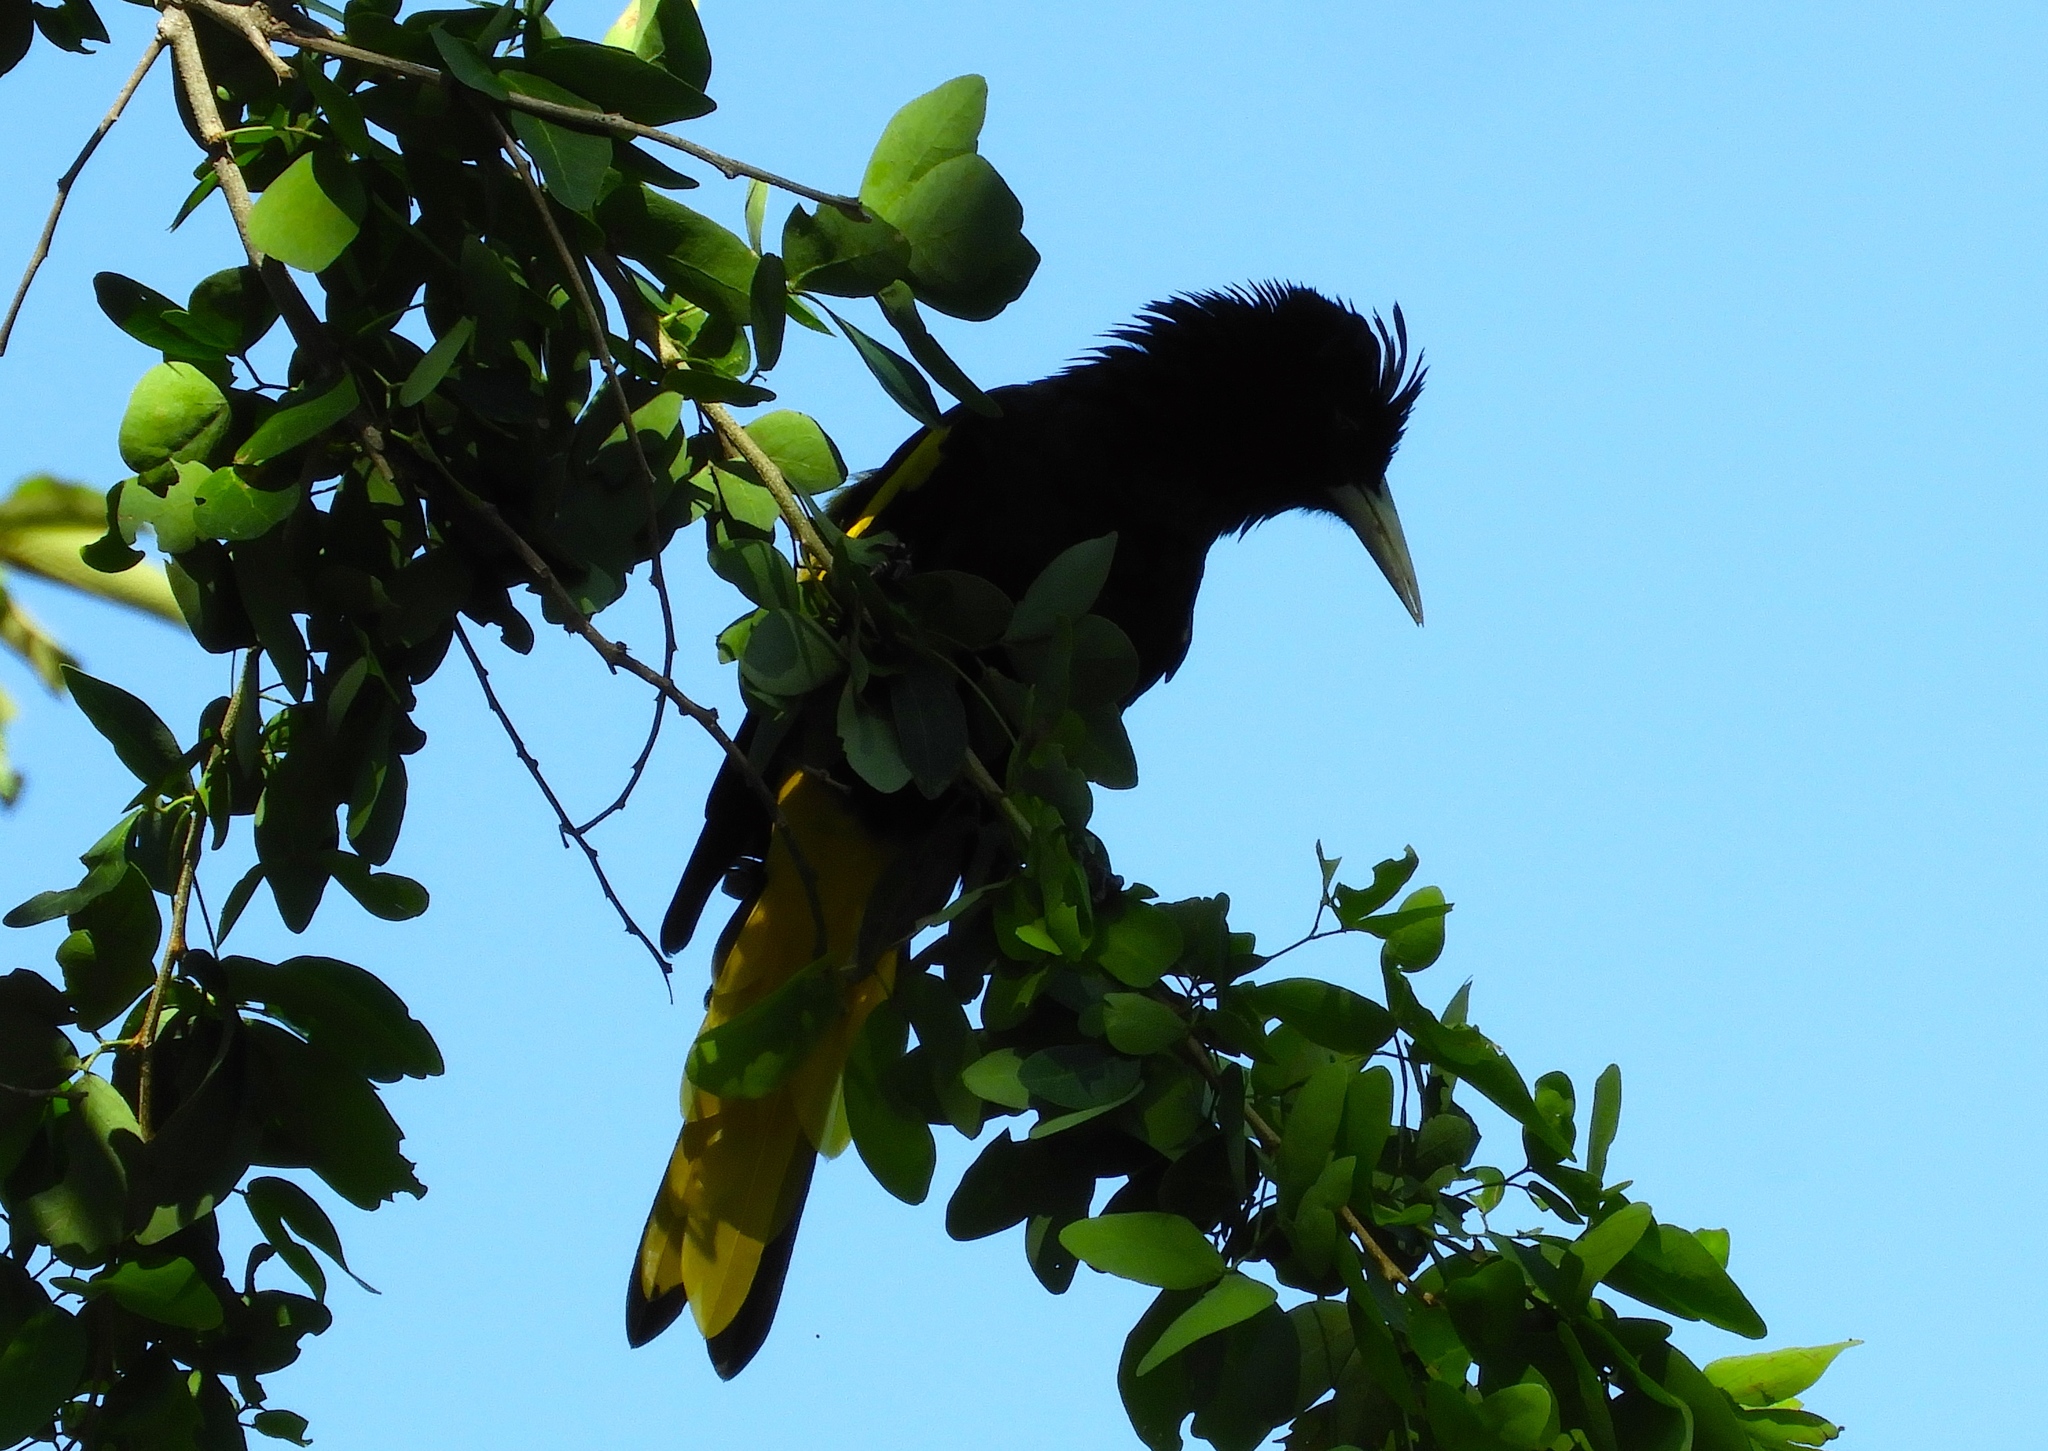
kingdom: Animalia
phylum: Chordata
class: Aves
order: Passeriformes
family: Icteridae
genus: Cacicus
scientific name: Cacicus melanicterus
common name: Yellow-winged cacique
